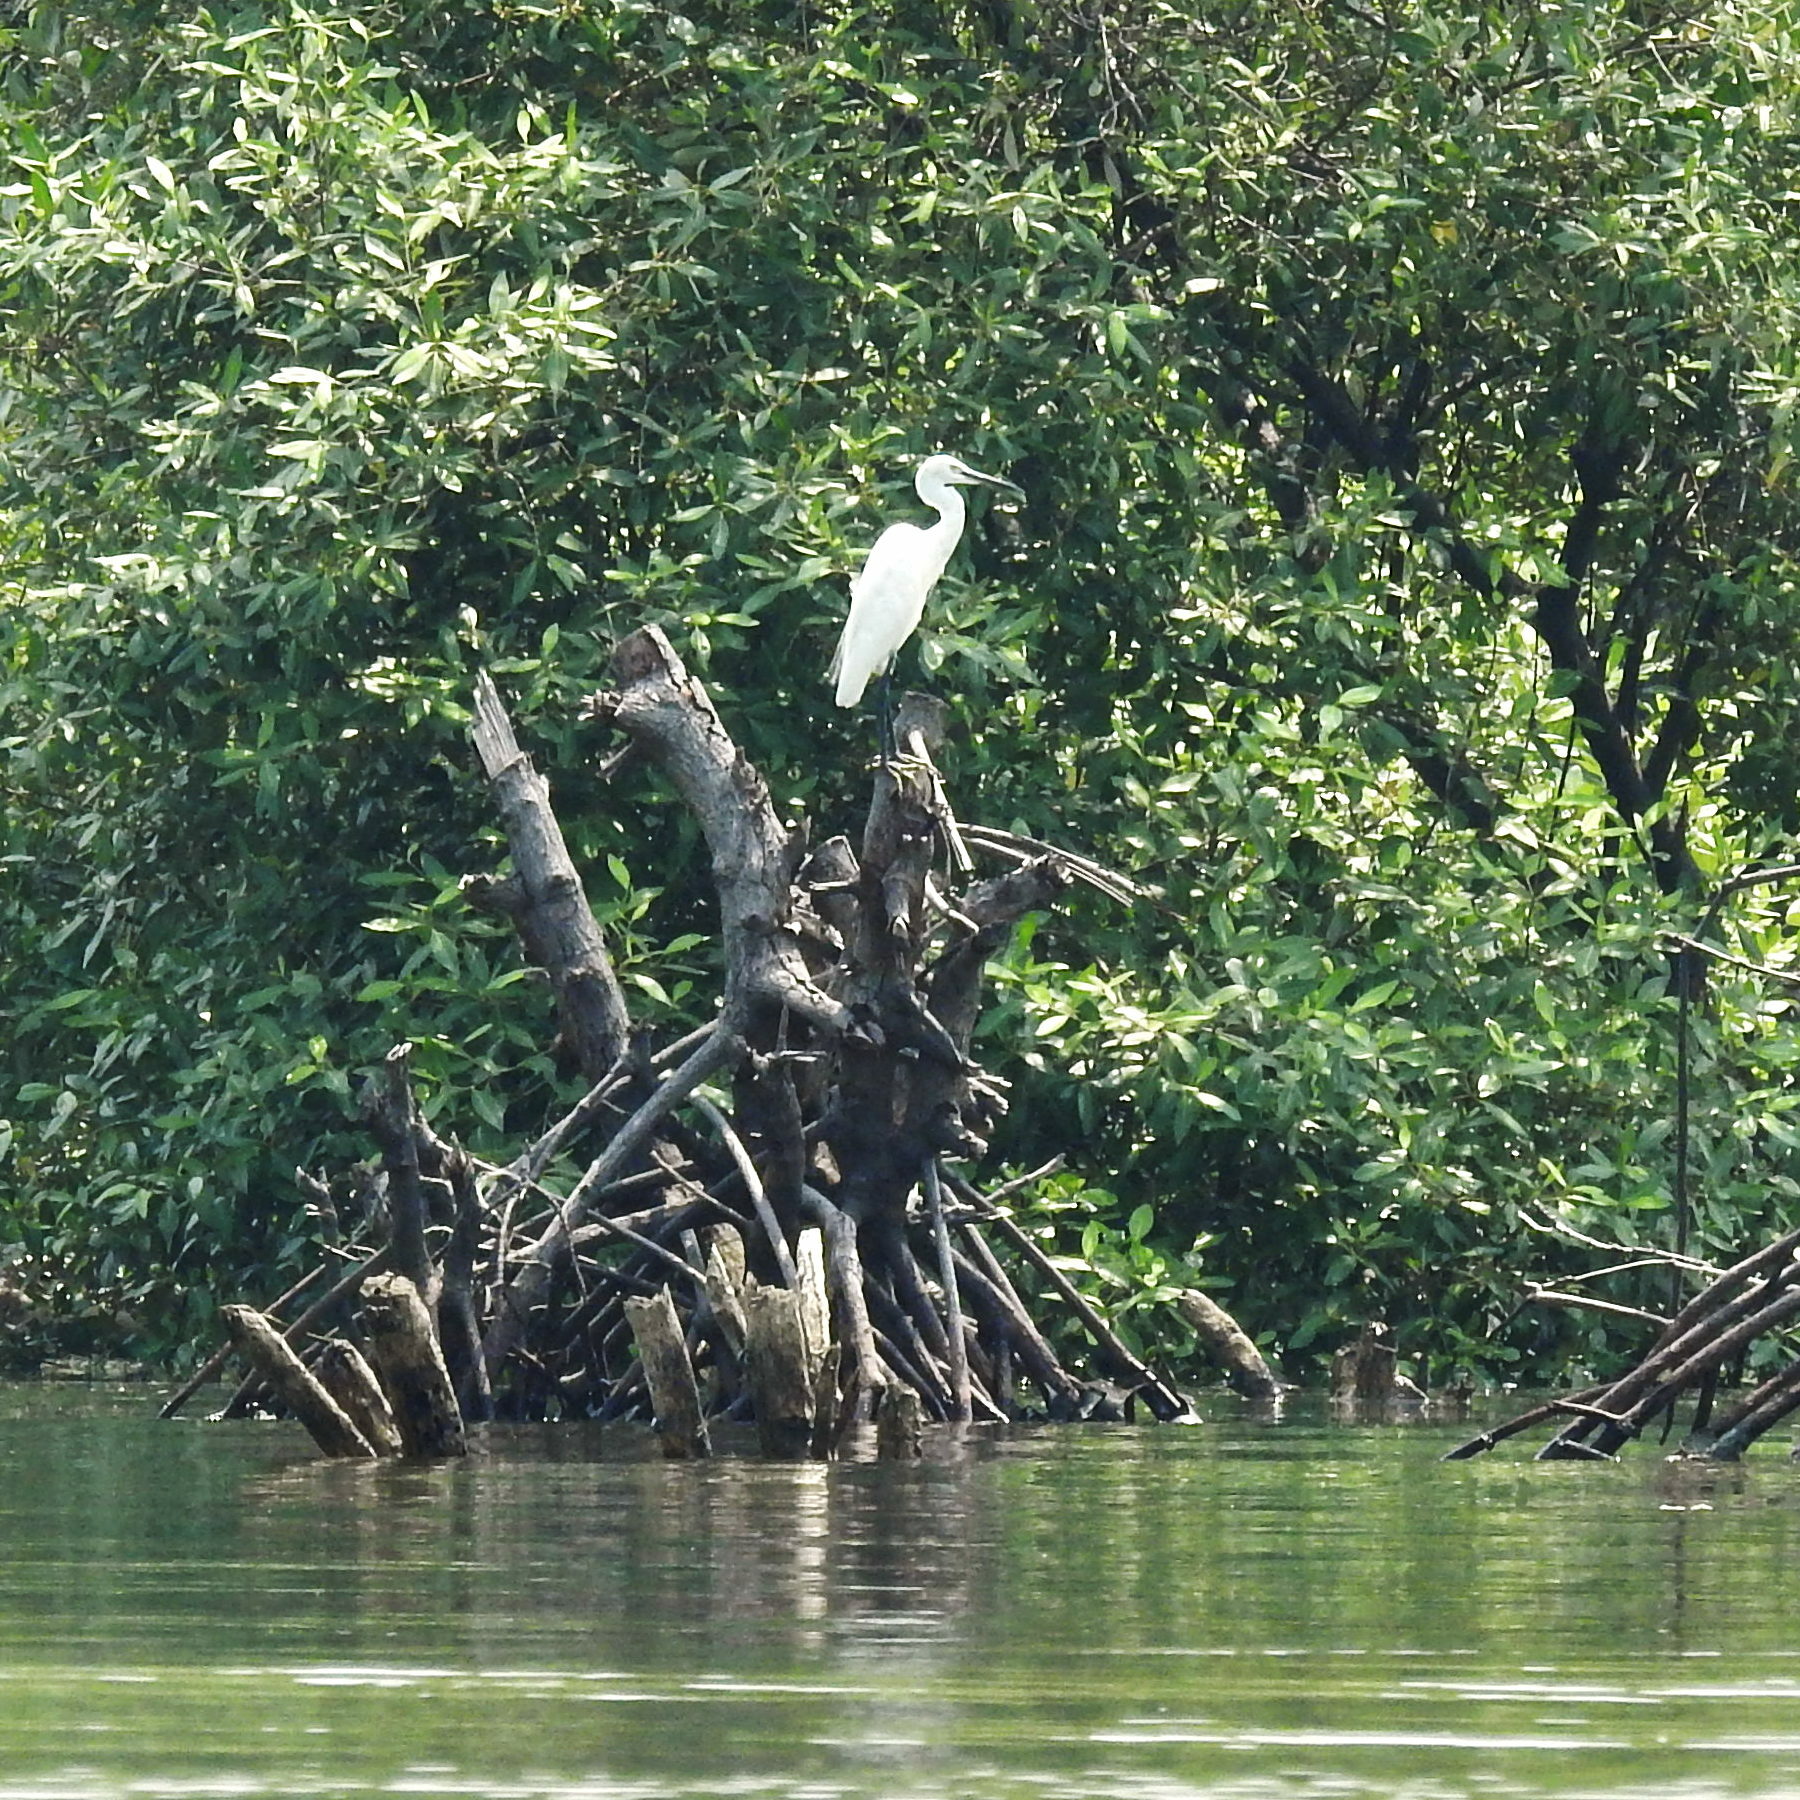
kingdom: Animalia
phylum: Chordata
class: Aves
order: Pelecaniformes
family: Ardeidae
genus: Egretta
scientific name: Egretta garzetta
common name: Little egret
